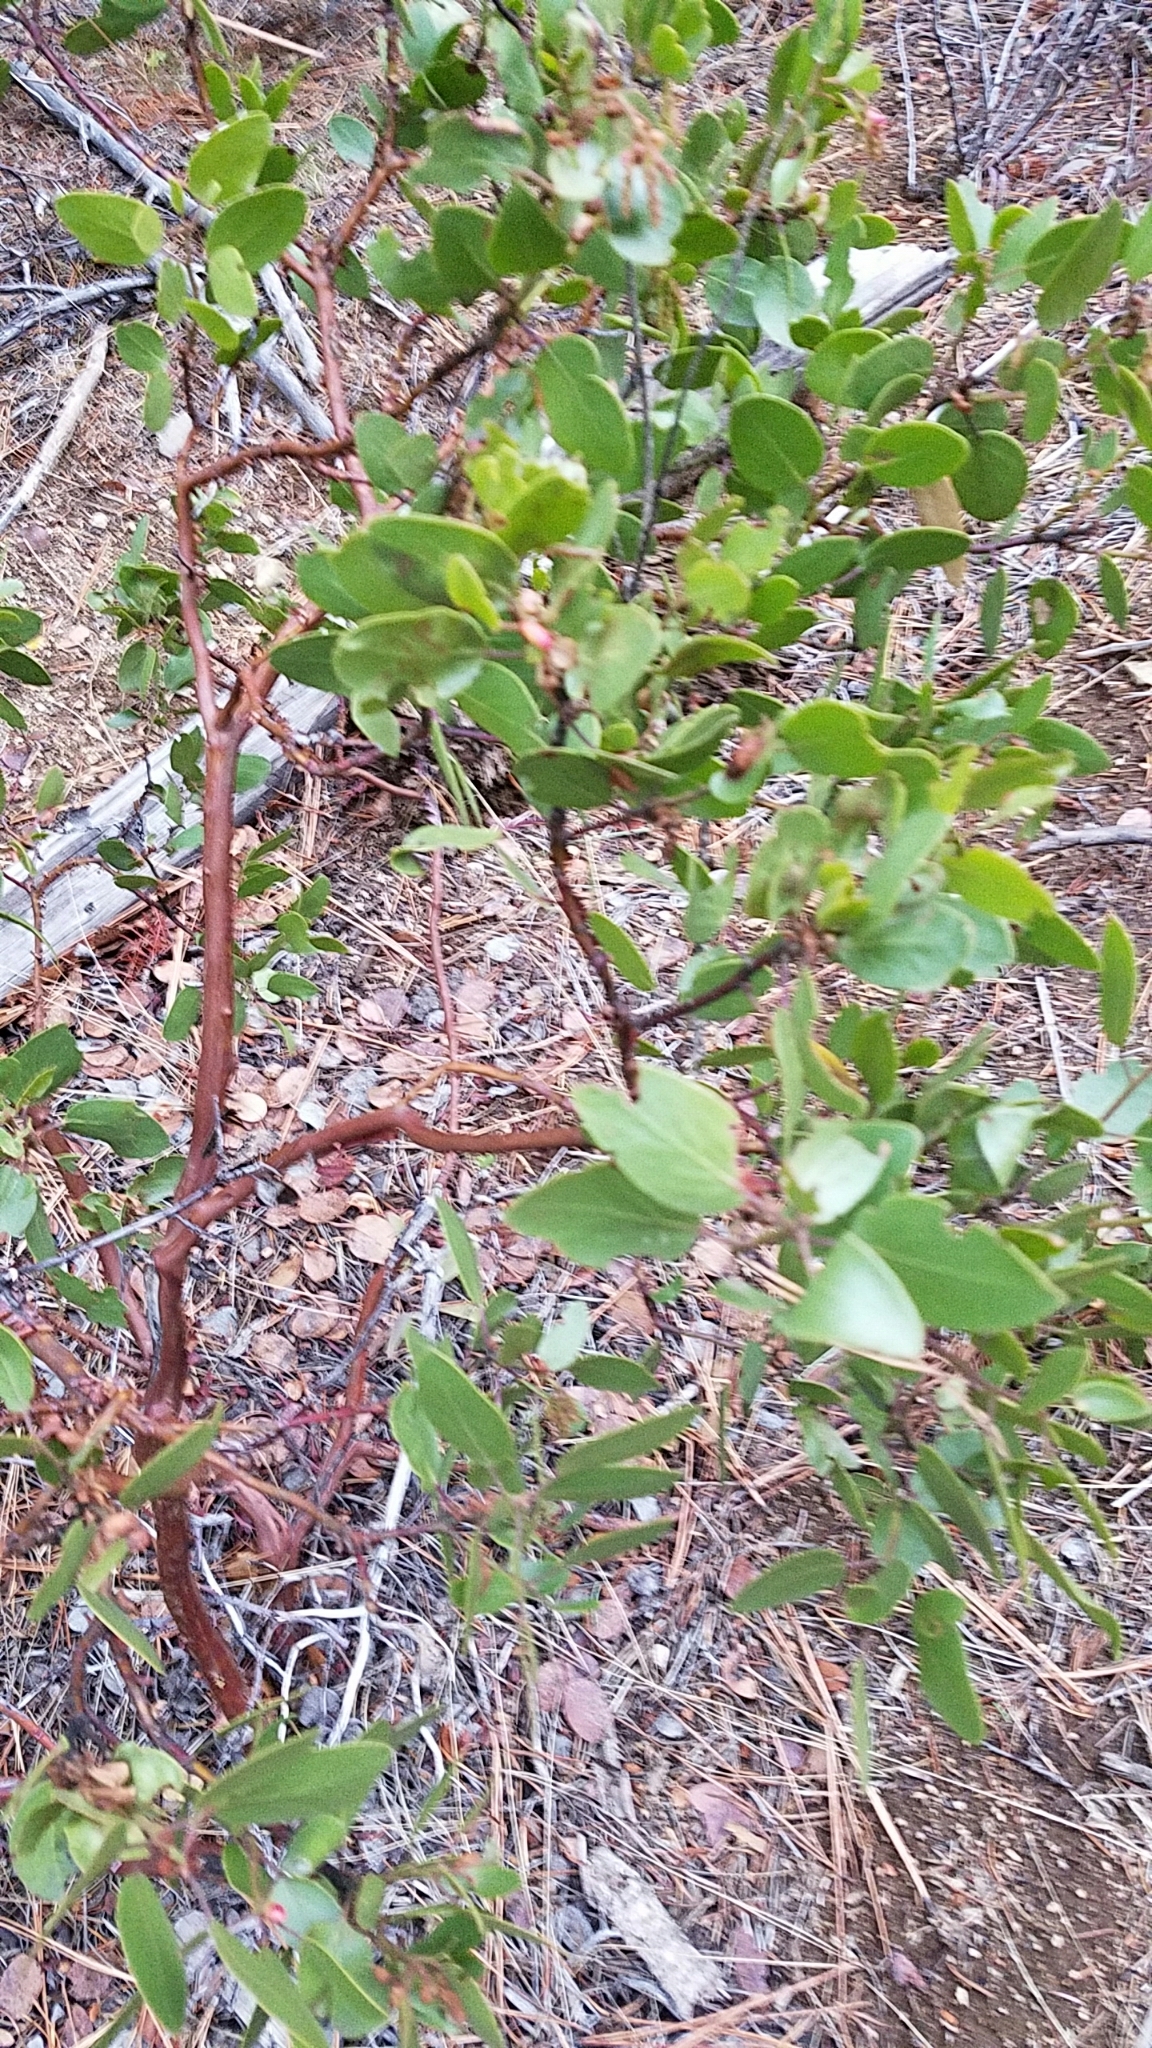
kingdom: Plantae
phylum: Tracheophyta
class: Magnoliopsida
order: Ericales
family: Ericaceae
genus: Arctostaphylos
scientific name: Arctostaphylos patula
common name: Green-leaf manzanita
